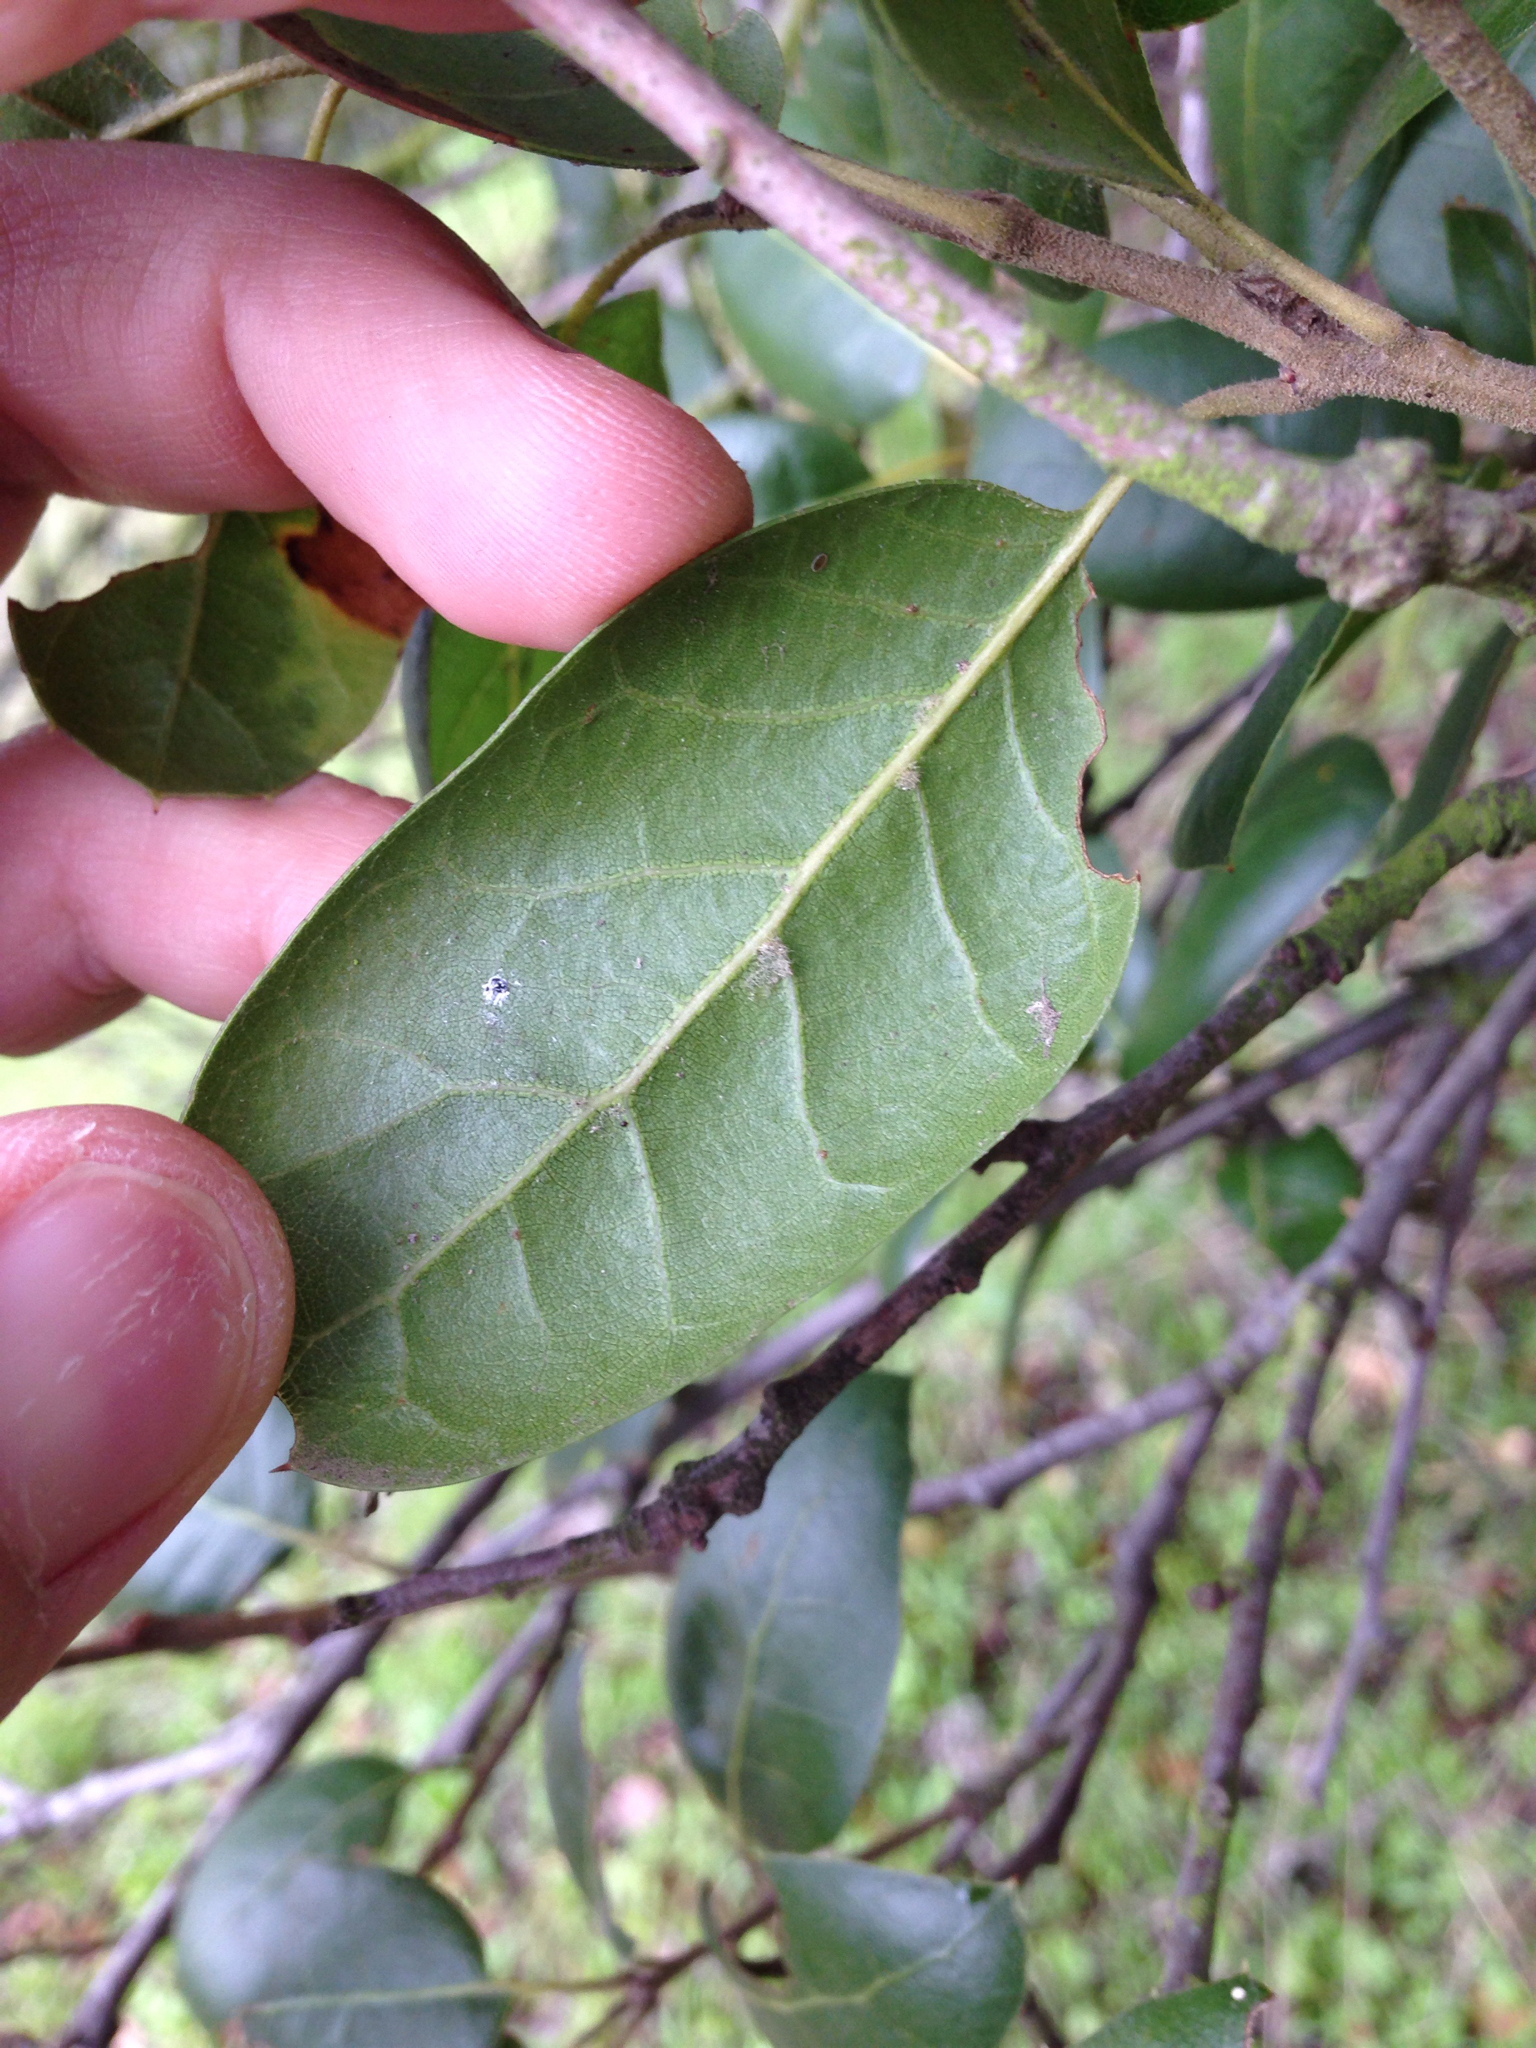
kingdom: Plantae
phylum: Tracheophyta
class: Magnoliopsida
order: Fagales
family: Fagaceae
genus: Quercus
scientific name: Quercus agrifolia
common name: California live oak
